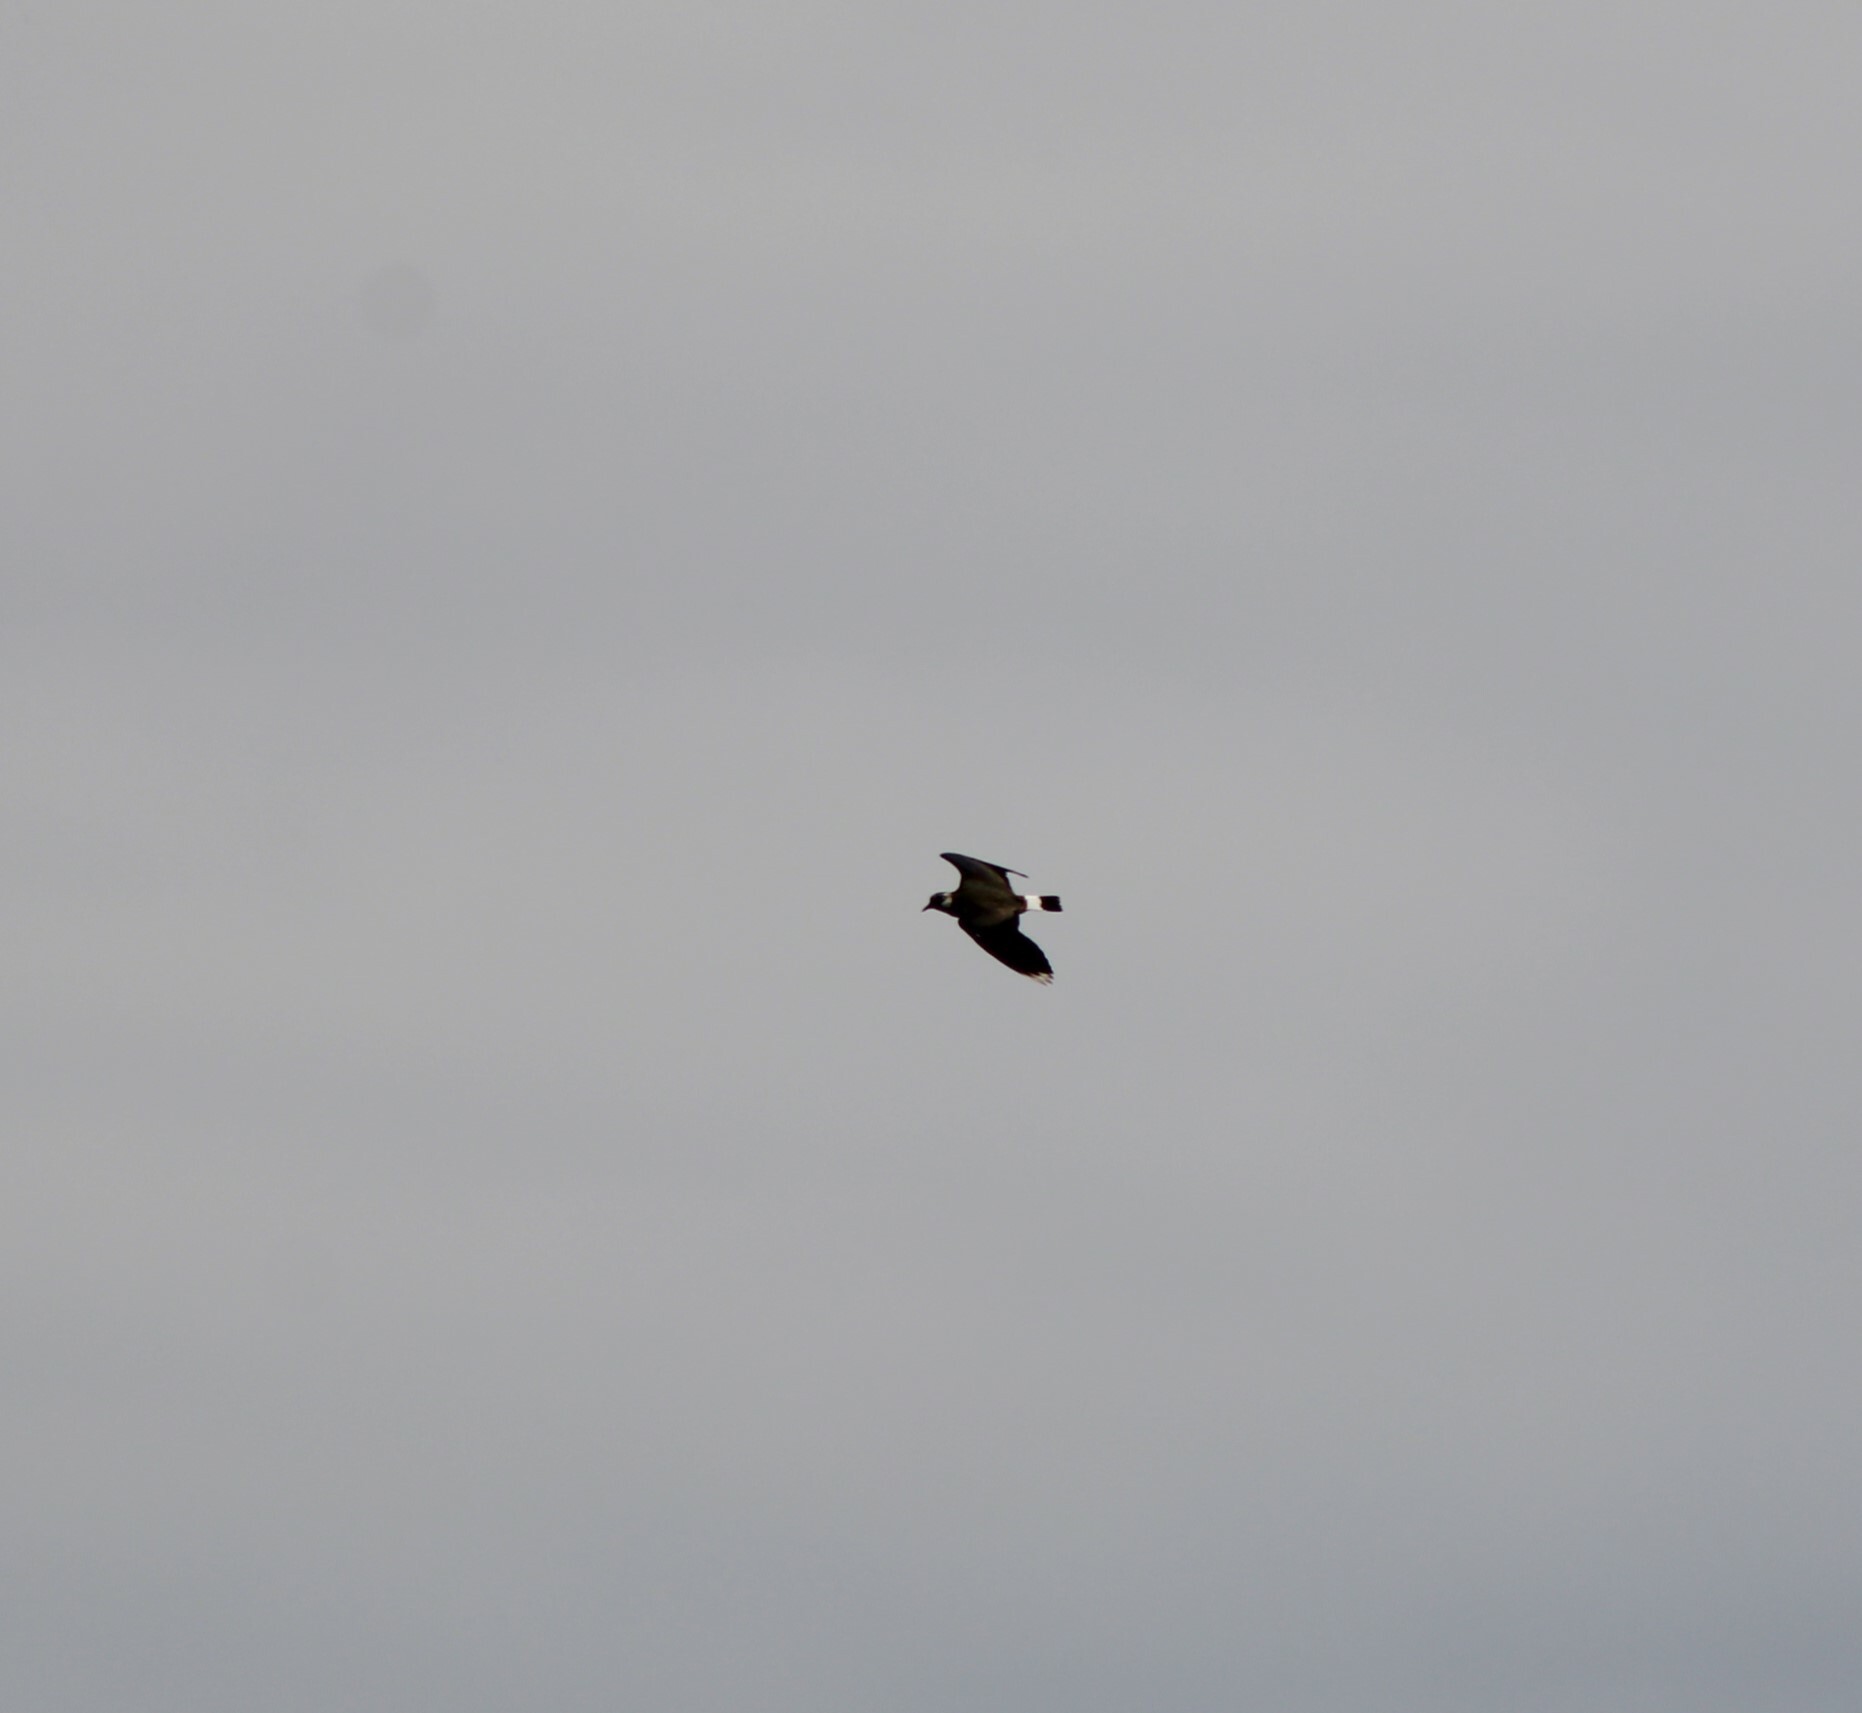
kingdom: Animalia
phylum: Chordata
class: Aves
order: Charadriiformes
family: Charadriidae
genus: Vanellus
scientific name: Vanellus vanellus
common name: Northern lapwing
